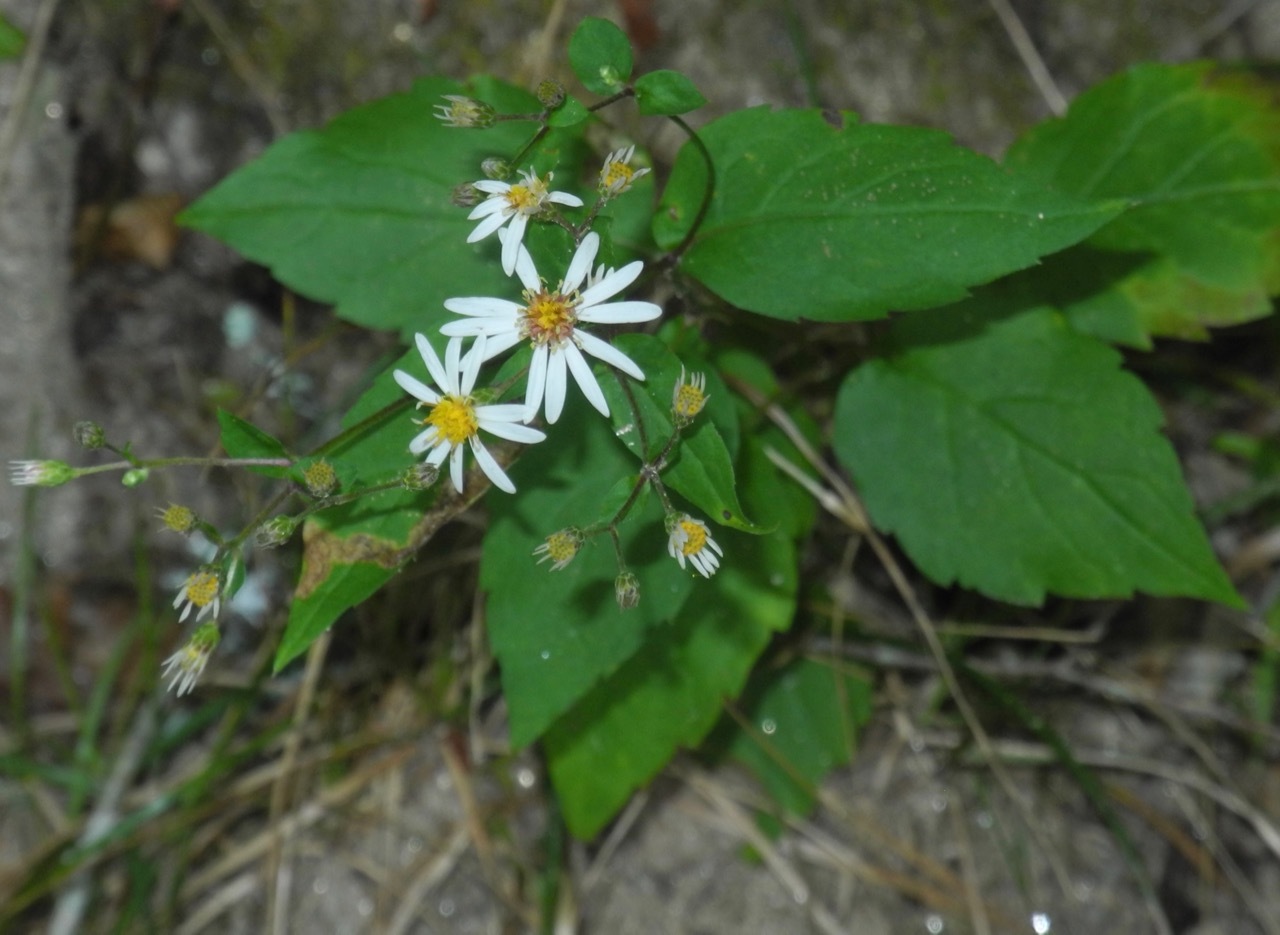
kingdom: Plantae
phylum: Tracheophyta
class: Magnoliopsida
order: Asterales
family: Asteraceae
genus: Eurybia
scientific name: Eurybia divaricata
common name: White wood aster
